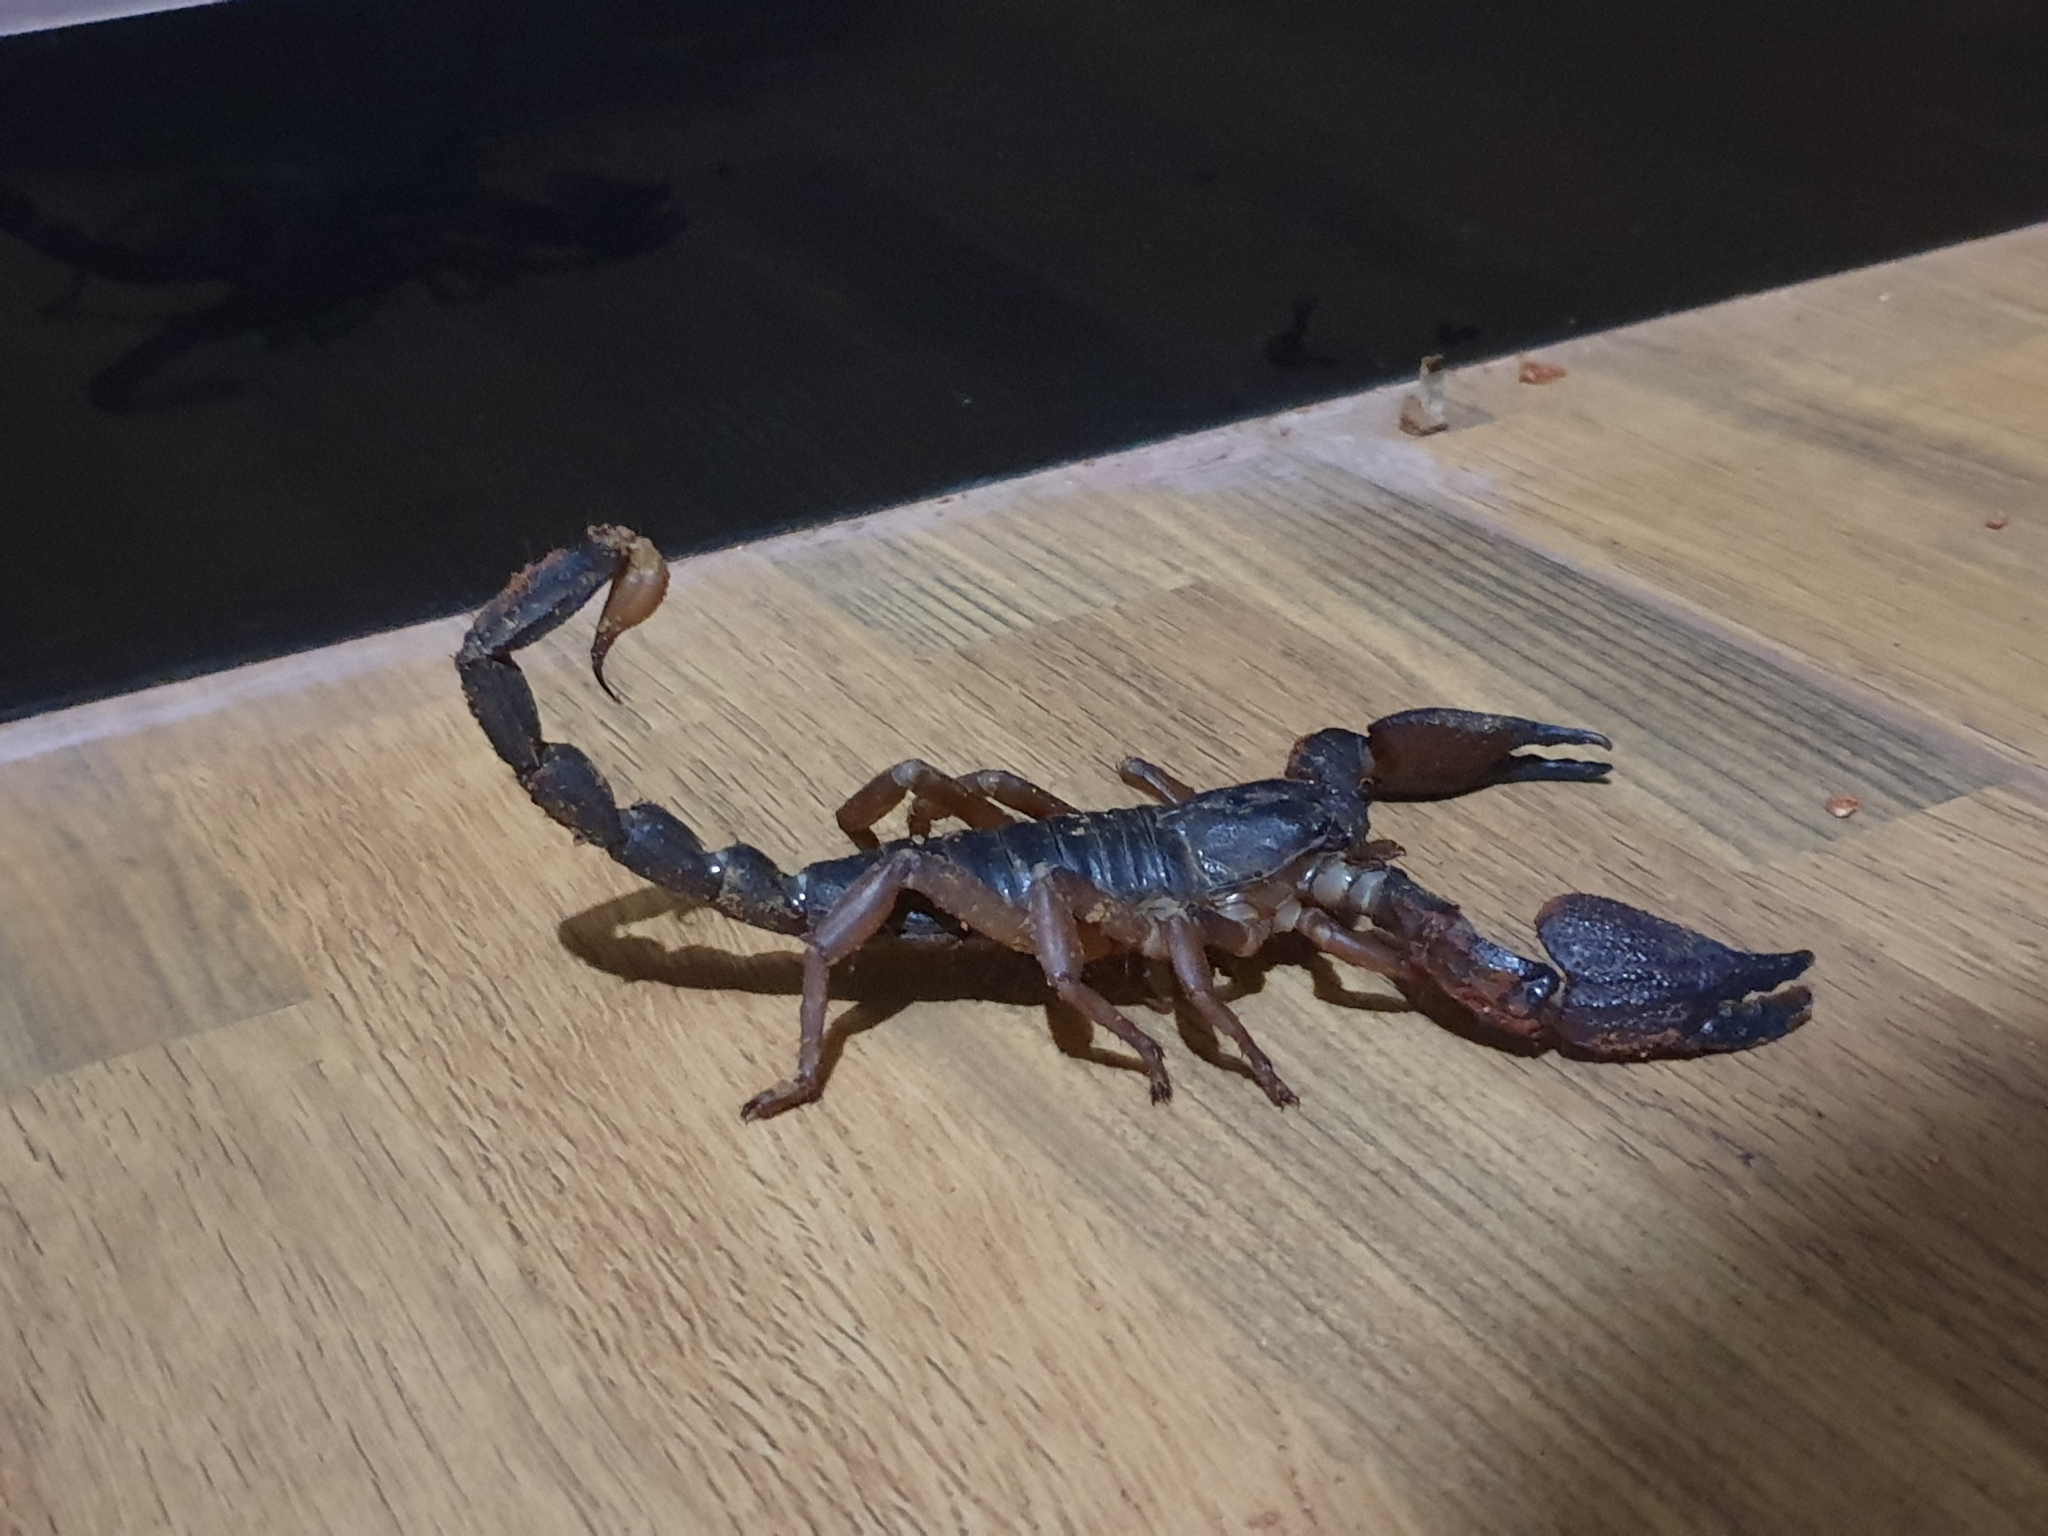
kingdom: Animalia
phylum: Arthropoda
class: Arachnida
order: Scorpiones
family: Scorpionidae
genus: Gigantometrus
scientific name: Gigantometrus titanicus
